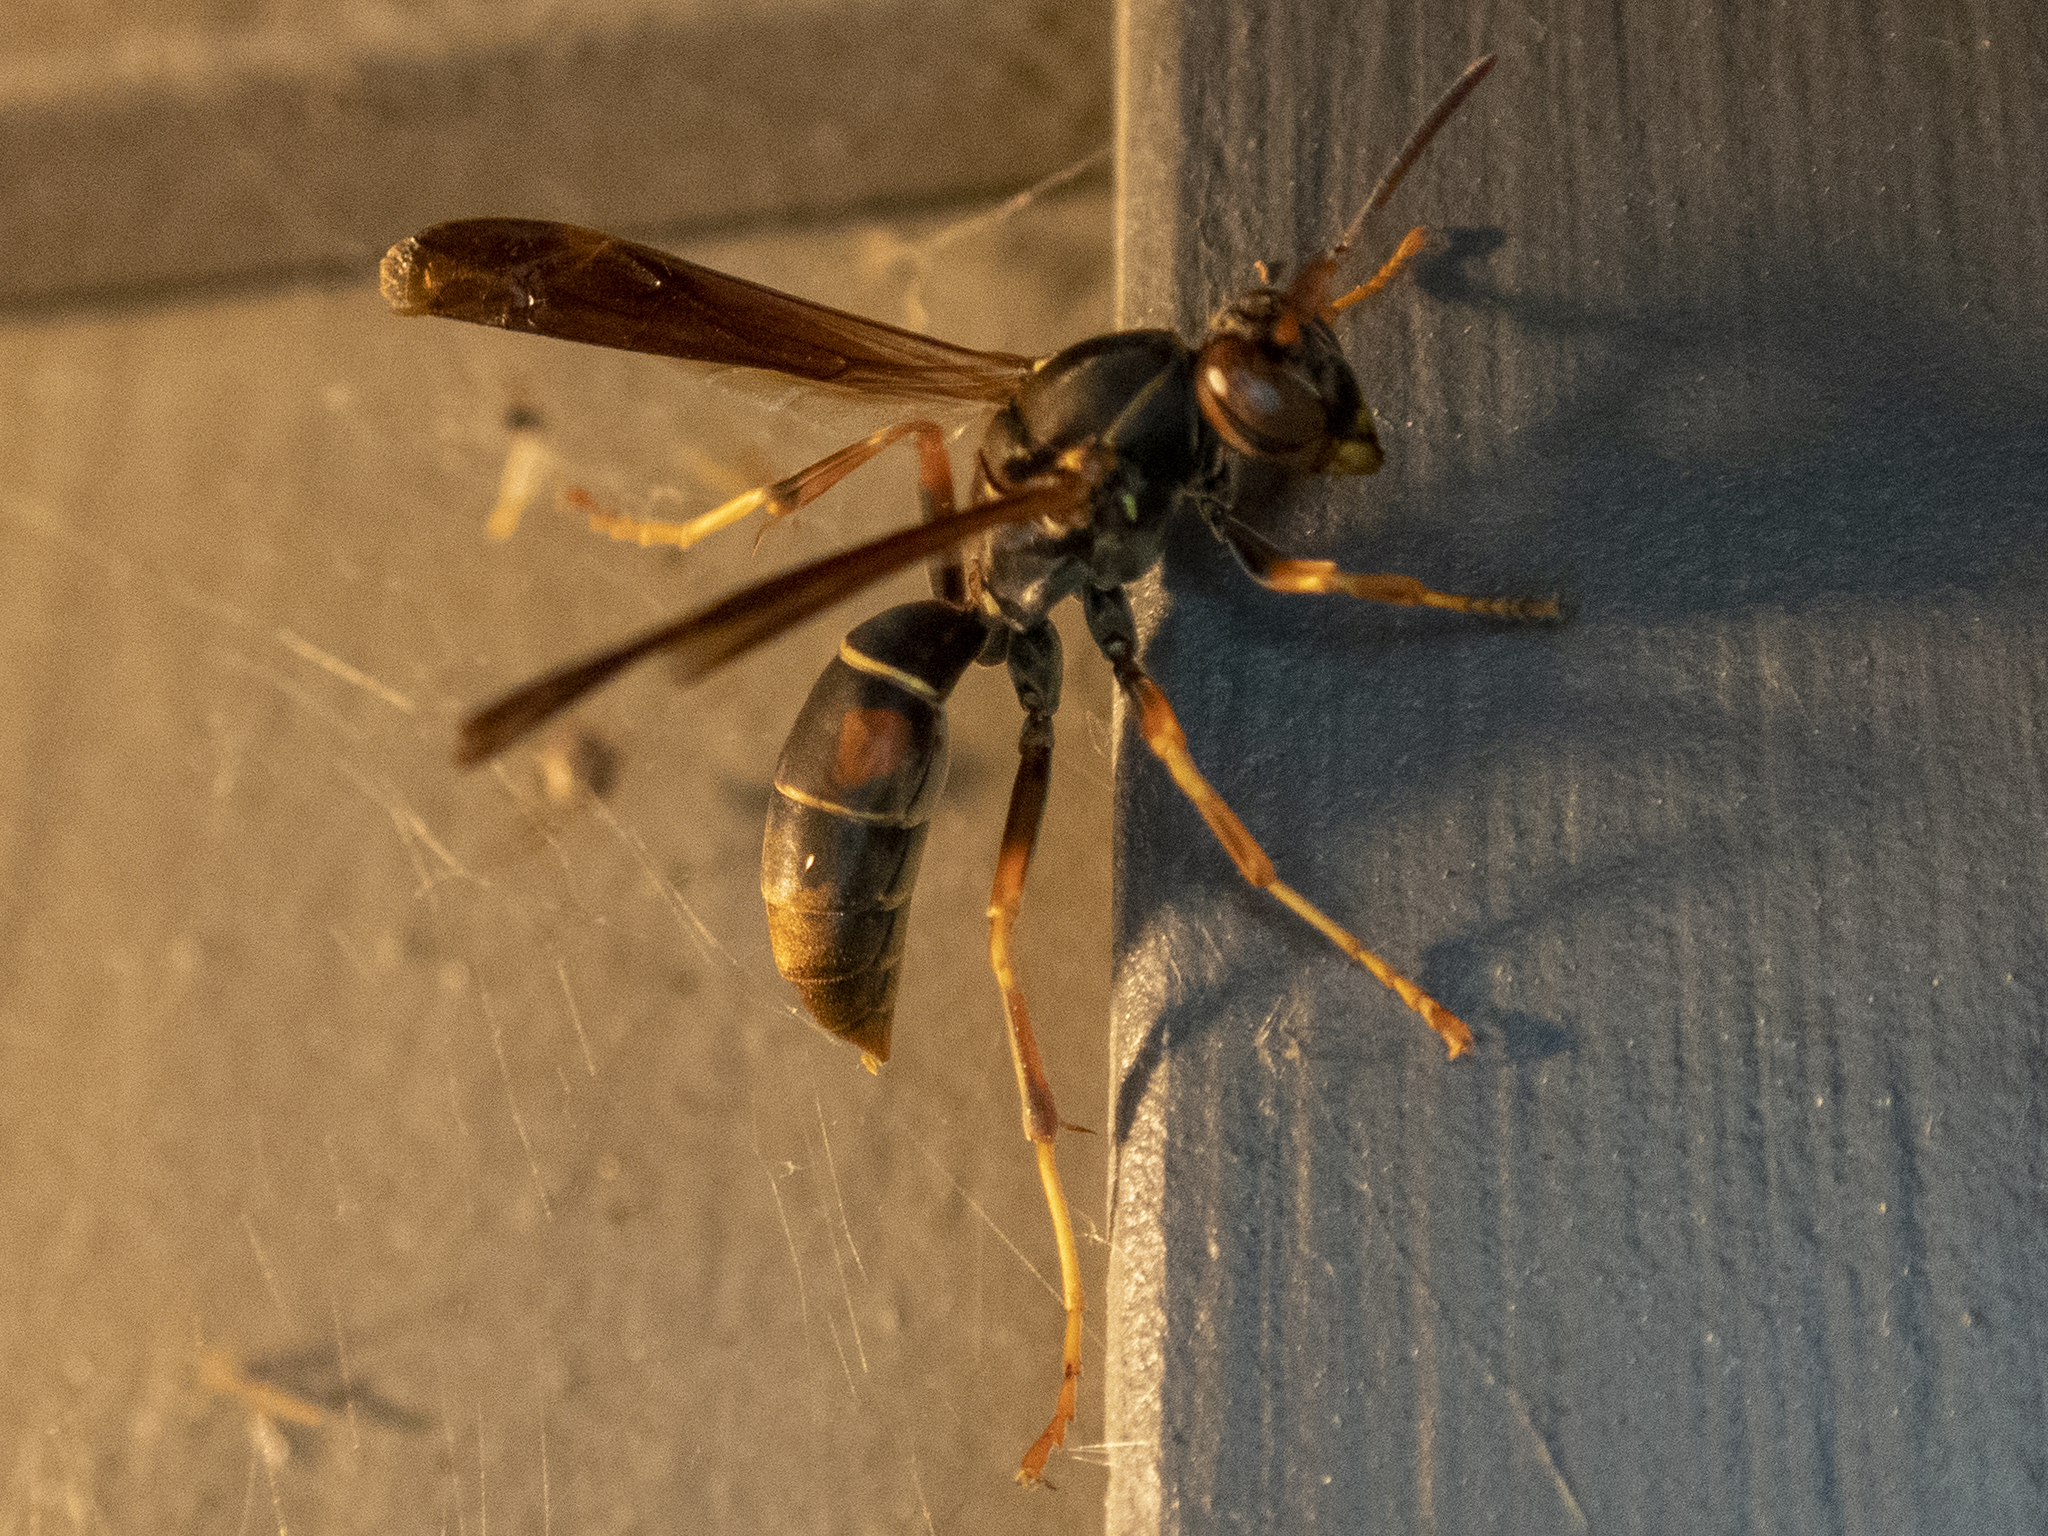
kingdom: Animalia
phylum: Arthropoda
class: Insecta
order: Hymenoptera
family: Eumenidae
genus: Polistes
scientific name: Polistes fuscatus
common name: Dark paper wasp
